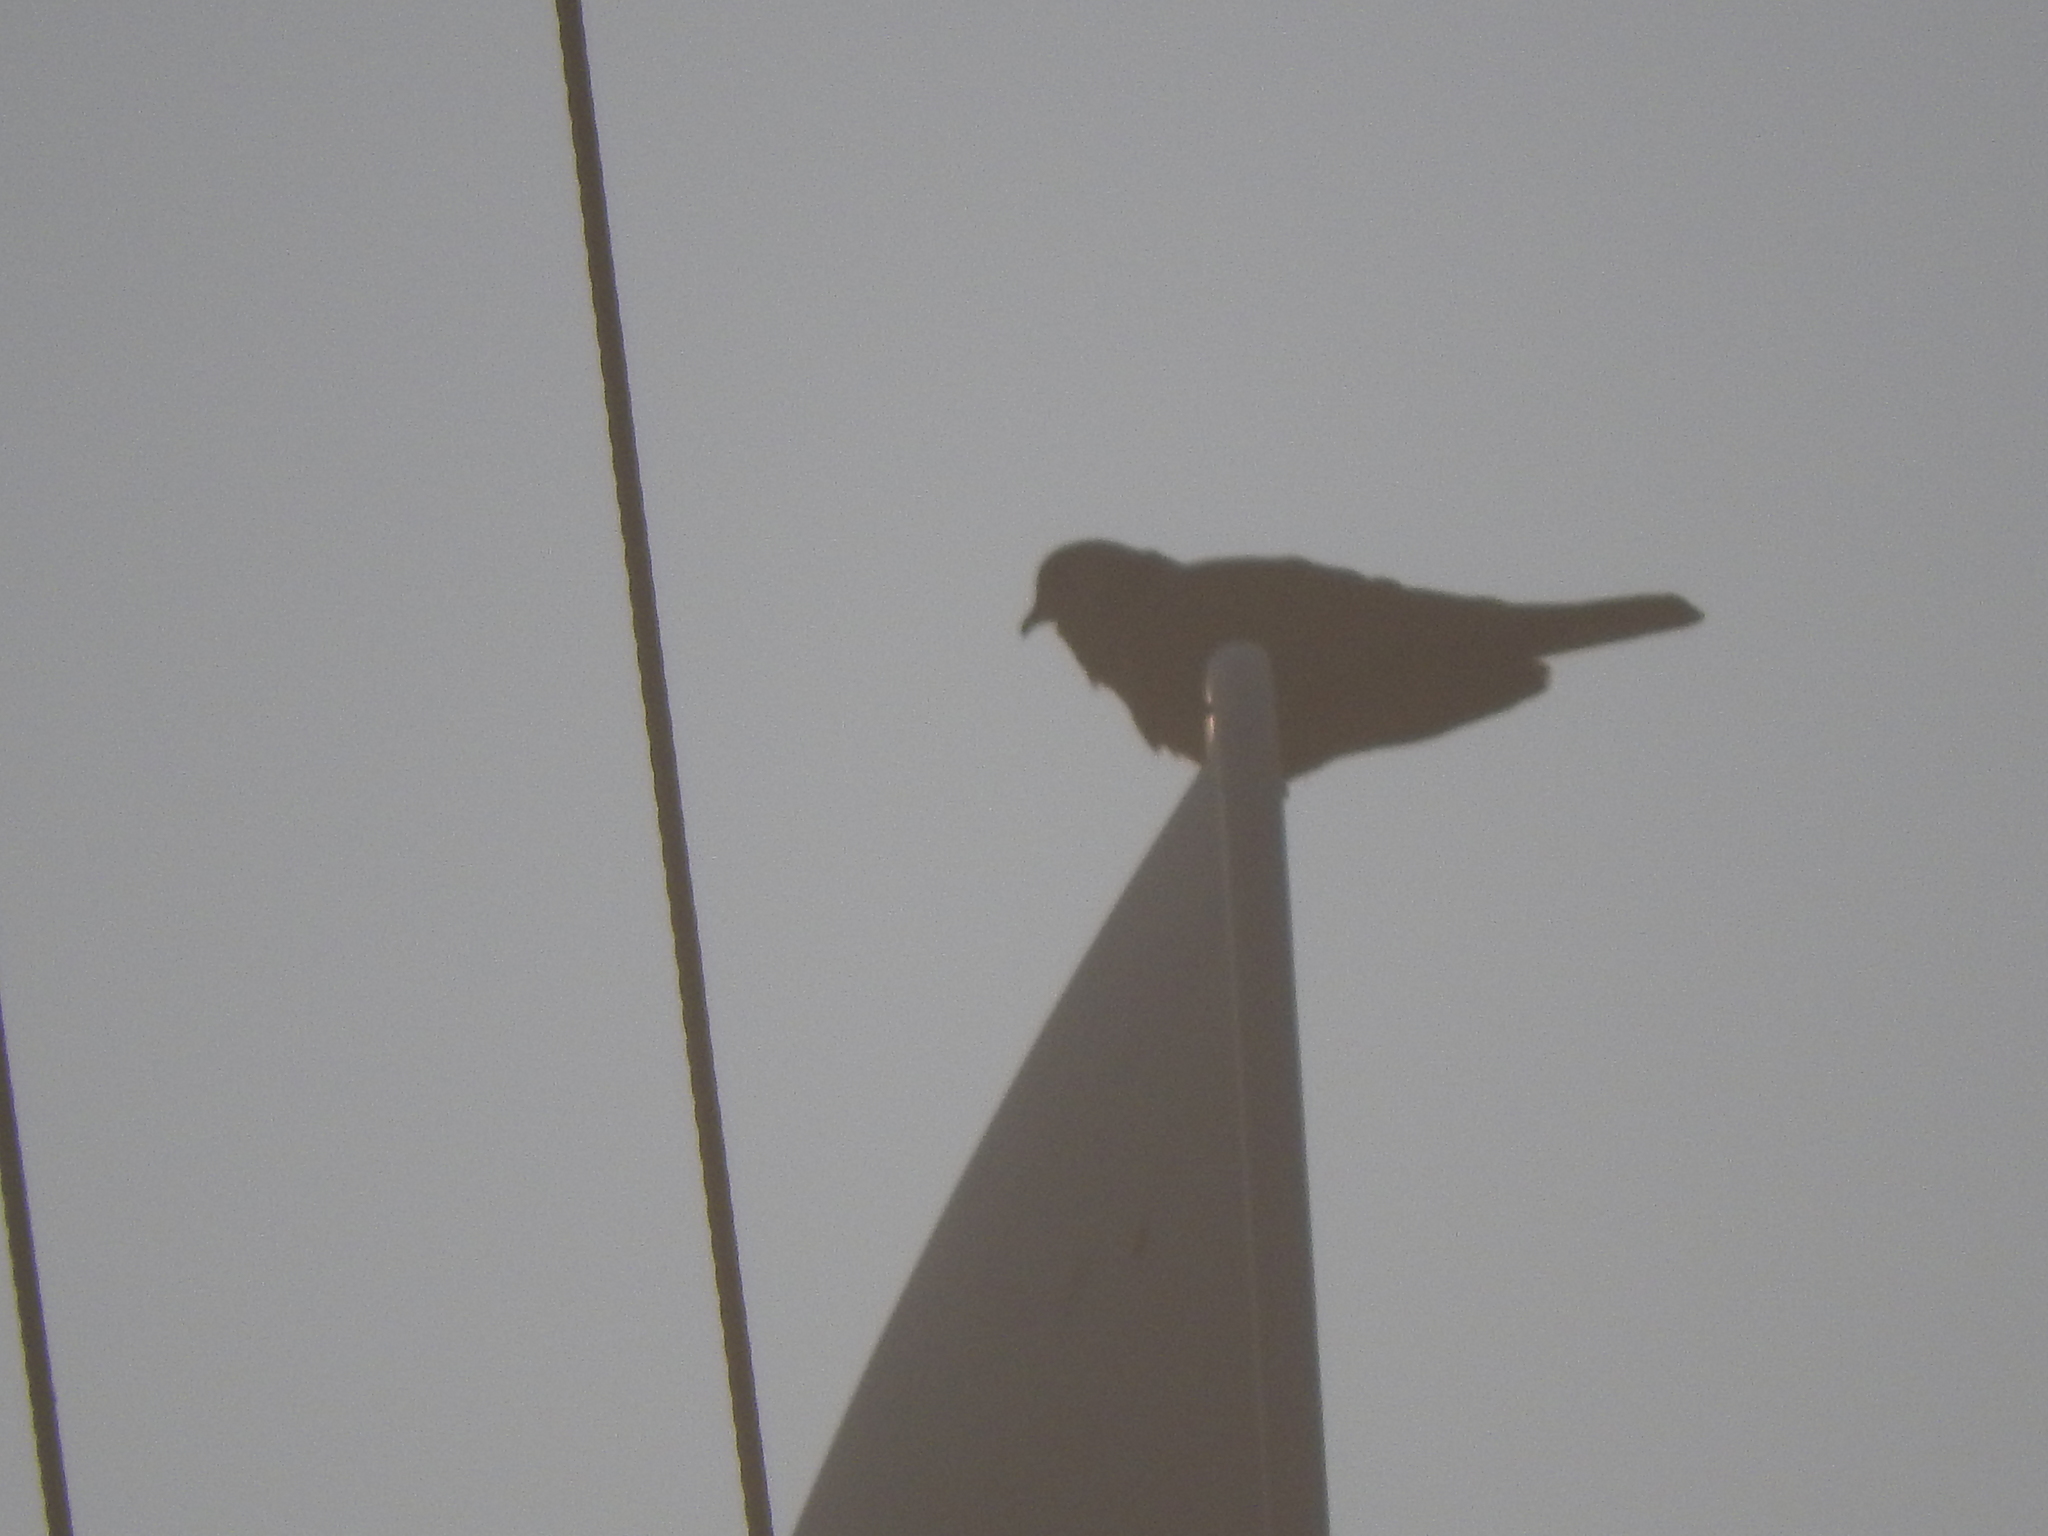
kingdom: Animalia
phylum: Chordata
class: Aves
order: Columbiformes
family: Columbidae
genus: Streptopelia
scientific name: Streptopelia decaocto
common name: Eurasian collared dove
